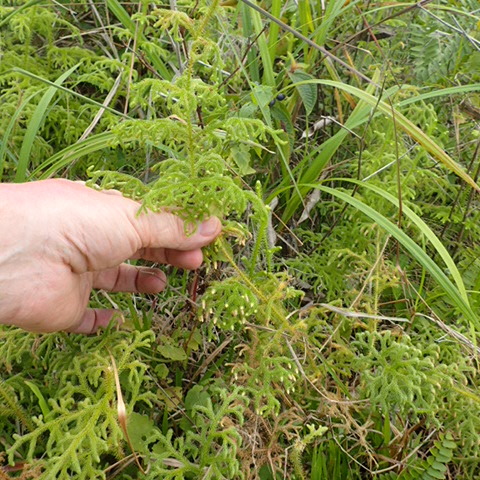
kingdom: Plantae
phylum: Tracheophyta
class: Lycopodiopsida
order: Lycopodiales
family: Lycopodiaceae
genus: Palhinhaea
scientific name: Palhinhaea cernua
